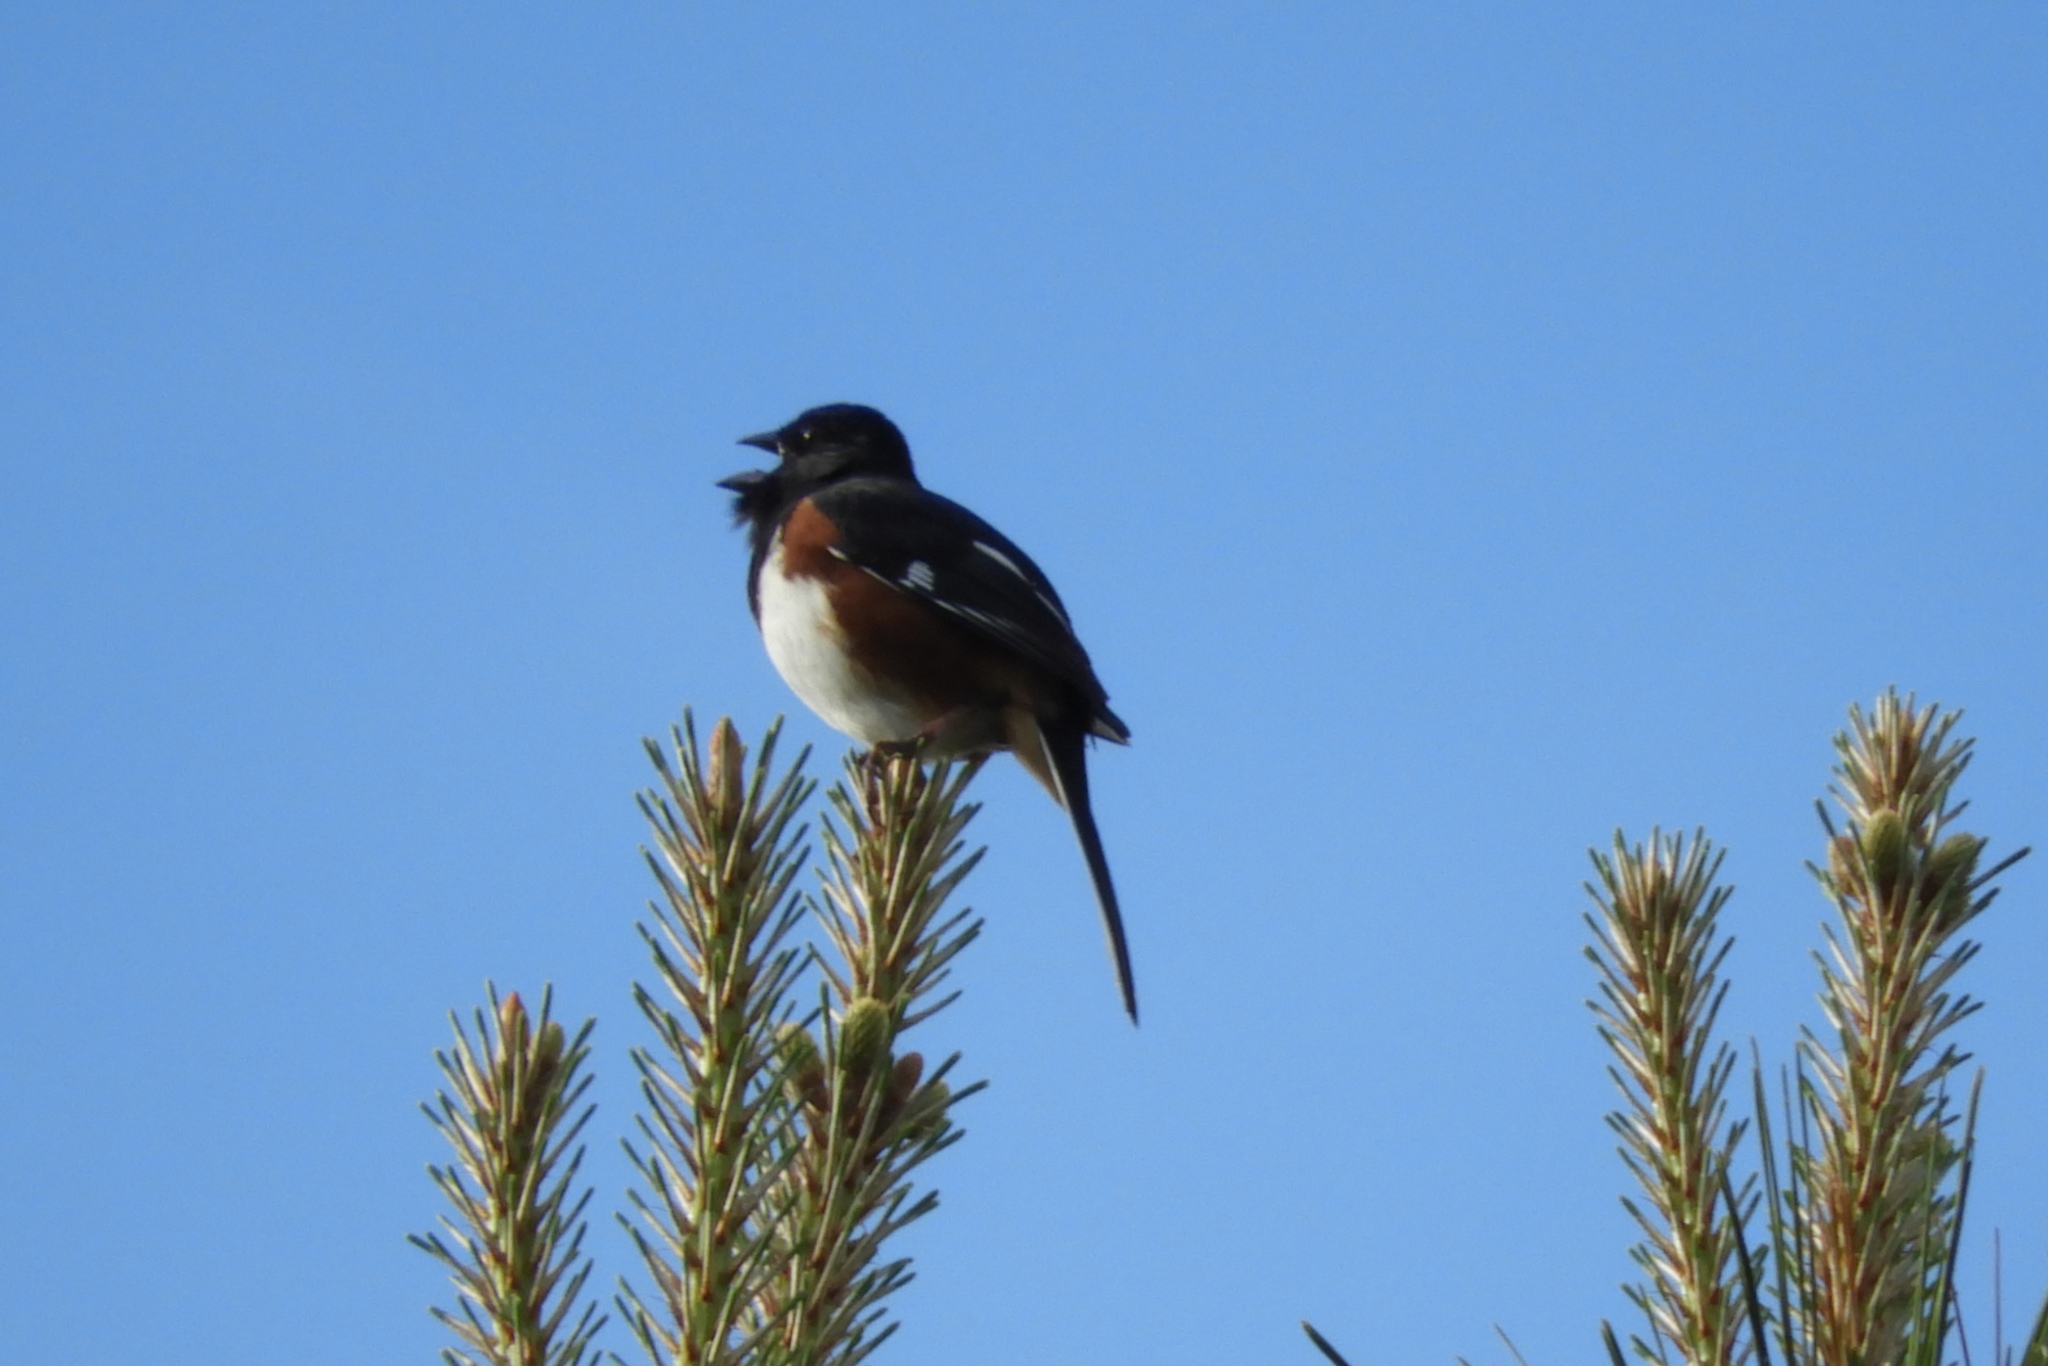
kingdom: Animalia
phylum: Chordata
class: Aves
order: Passeriformes
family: Passerellidae
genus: Pipilo
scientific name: Pipilo erythrophthalmus
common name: Eastern towhee
